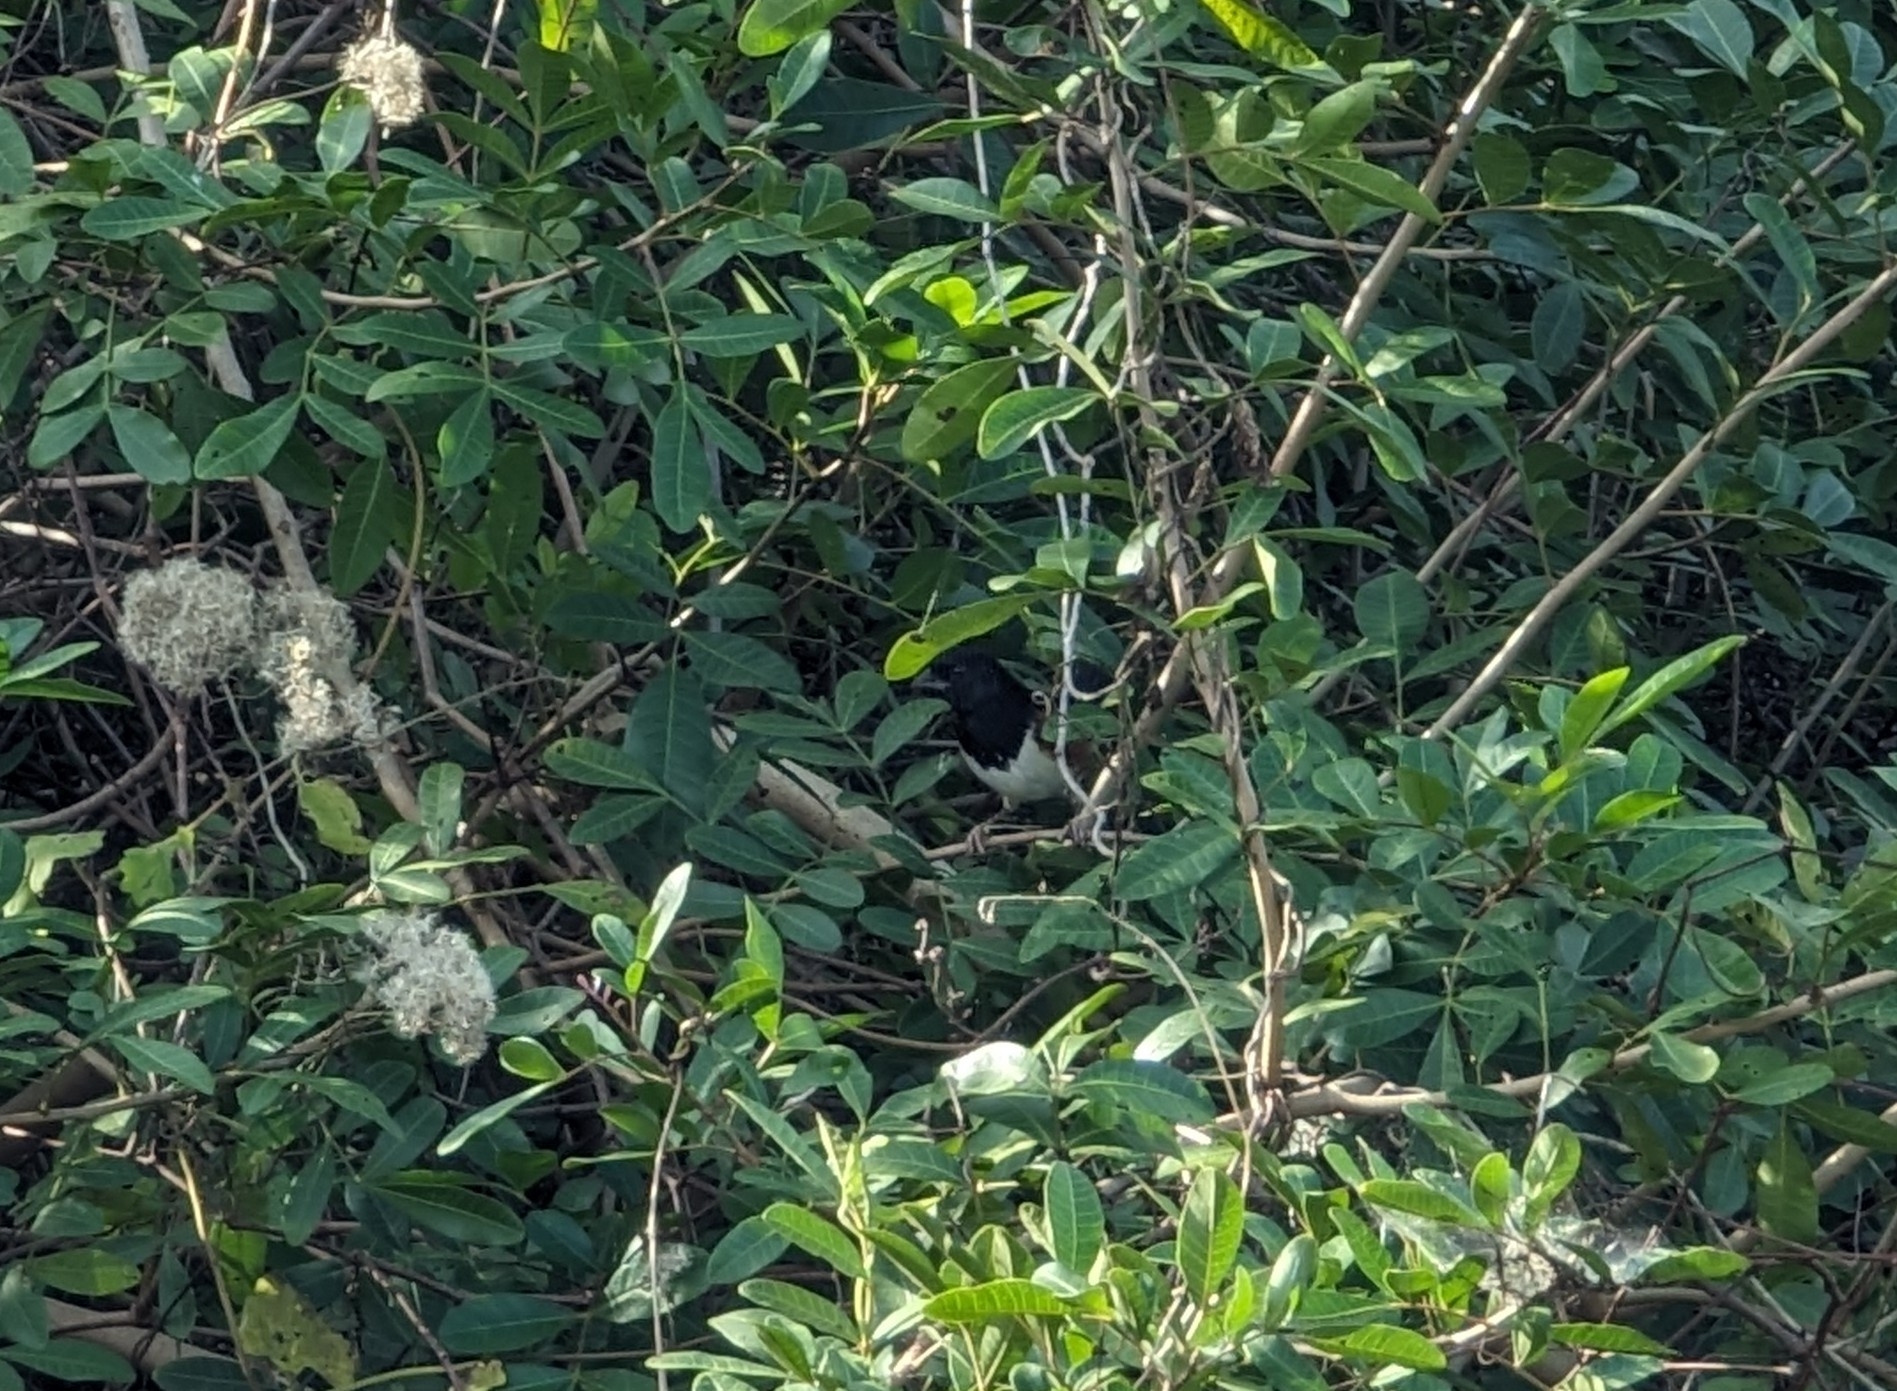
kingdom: Animalia
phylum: Chordata
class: Aves
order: Passeriformes
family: Passerellidae
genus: Pipilo
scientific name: Pipilo erythrophthalmus
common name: Eastern towhee
